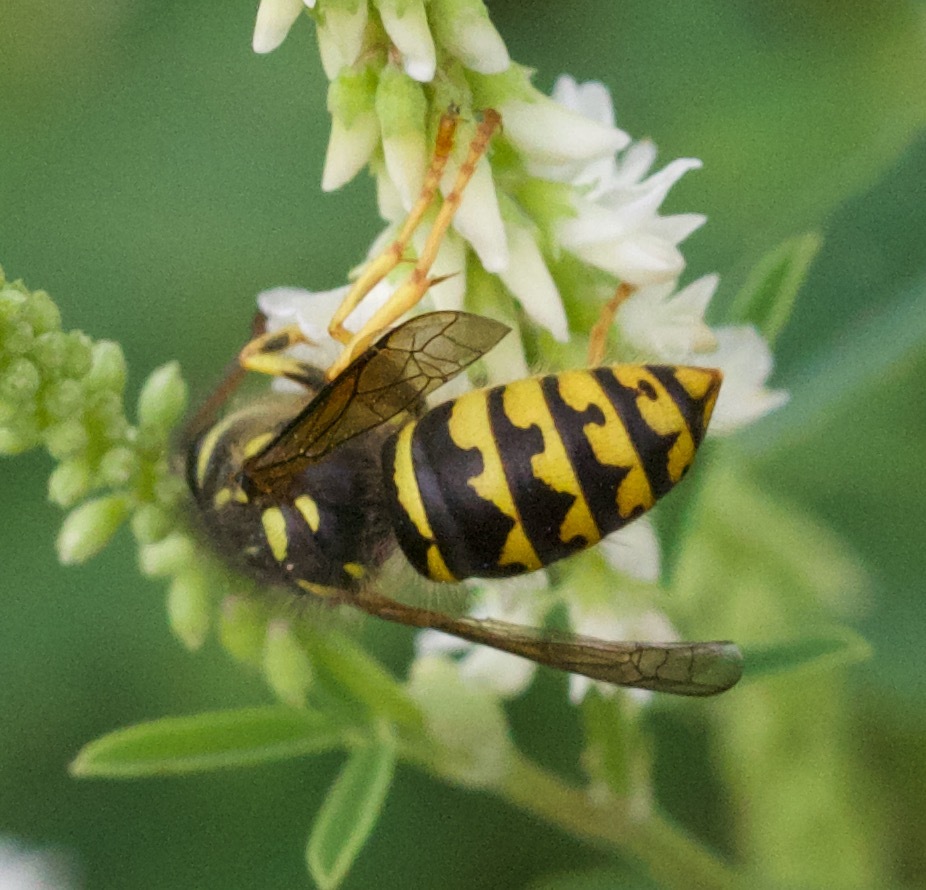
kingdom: Animalia
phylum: Arthropoda
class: Insecta
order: Hymenoptera
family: Vespidae
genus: Dolichovespula
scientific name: Dolichovespula arenaria
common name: Aerial yellowjacket
